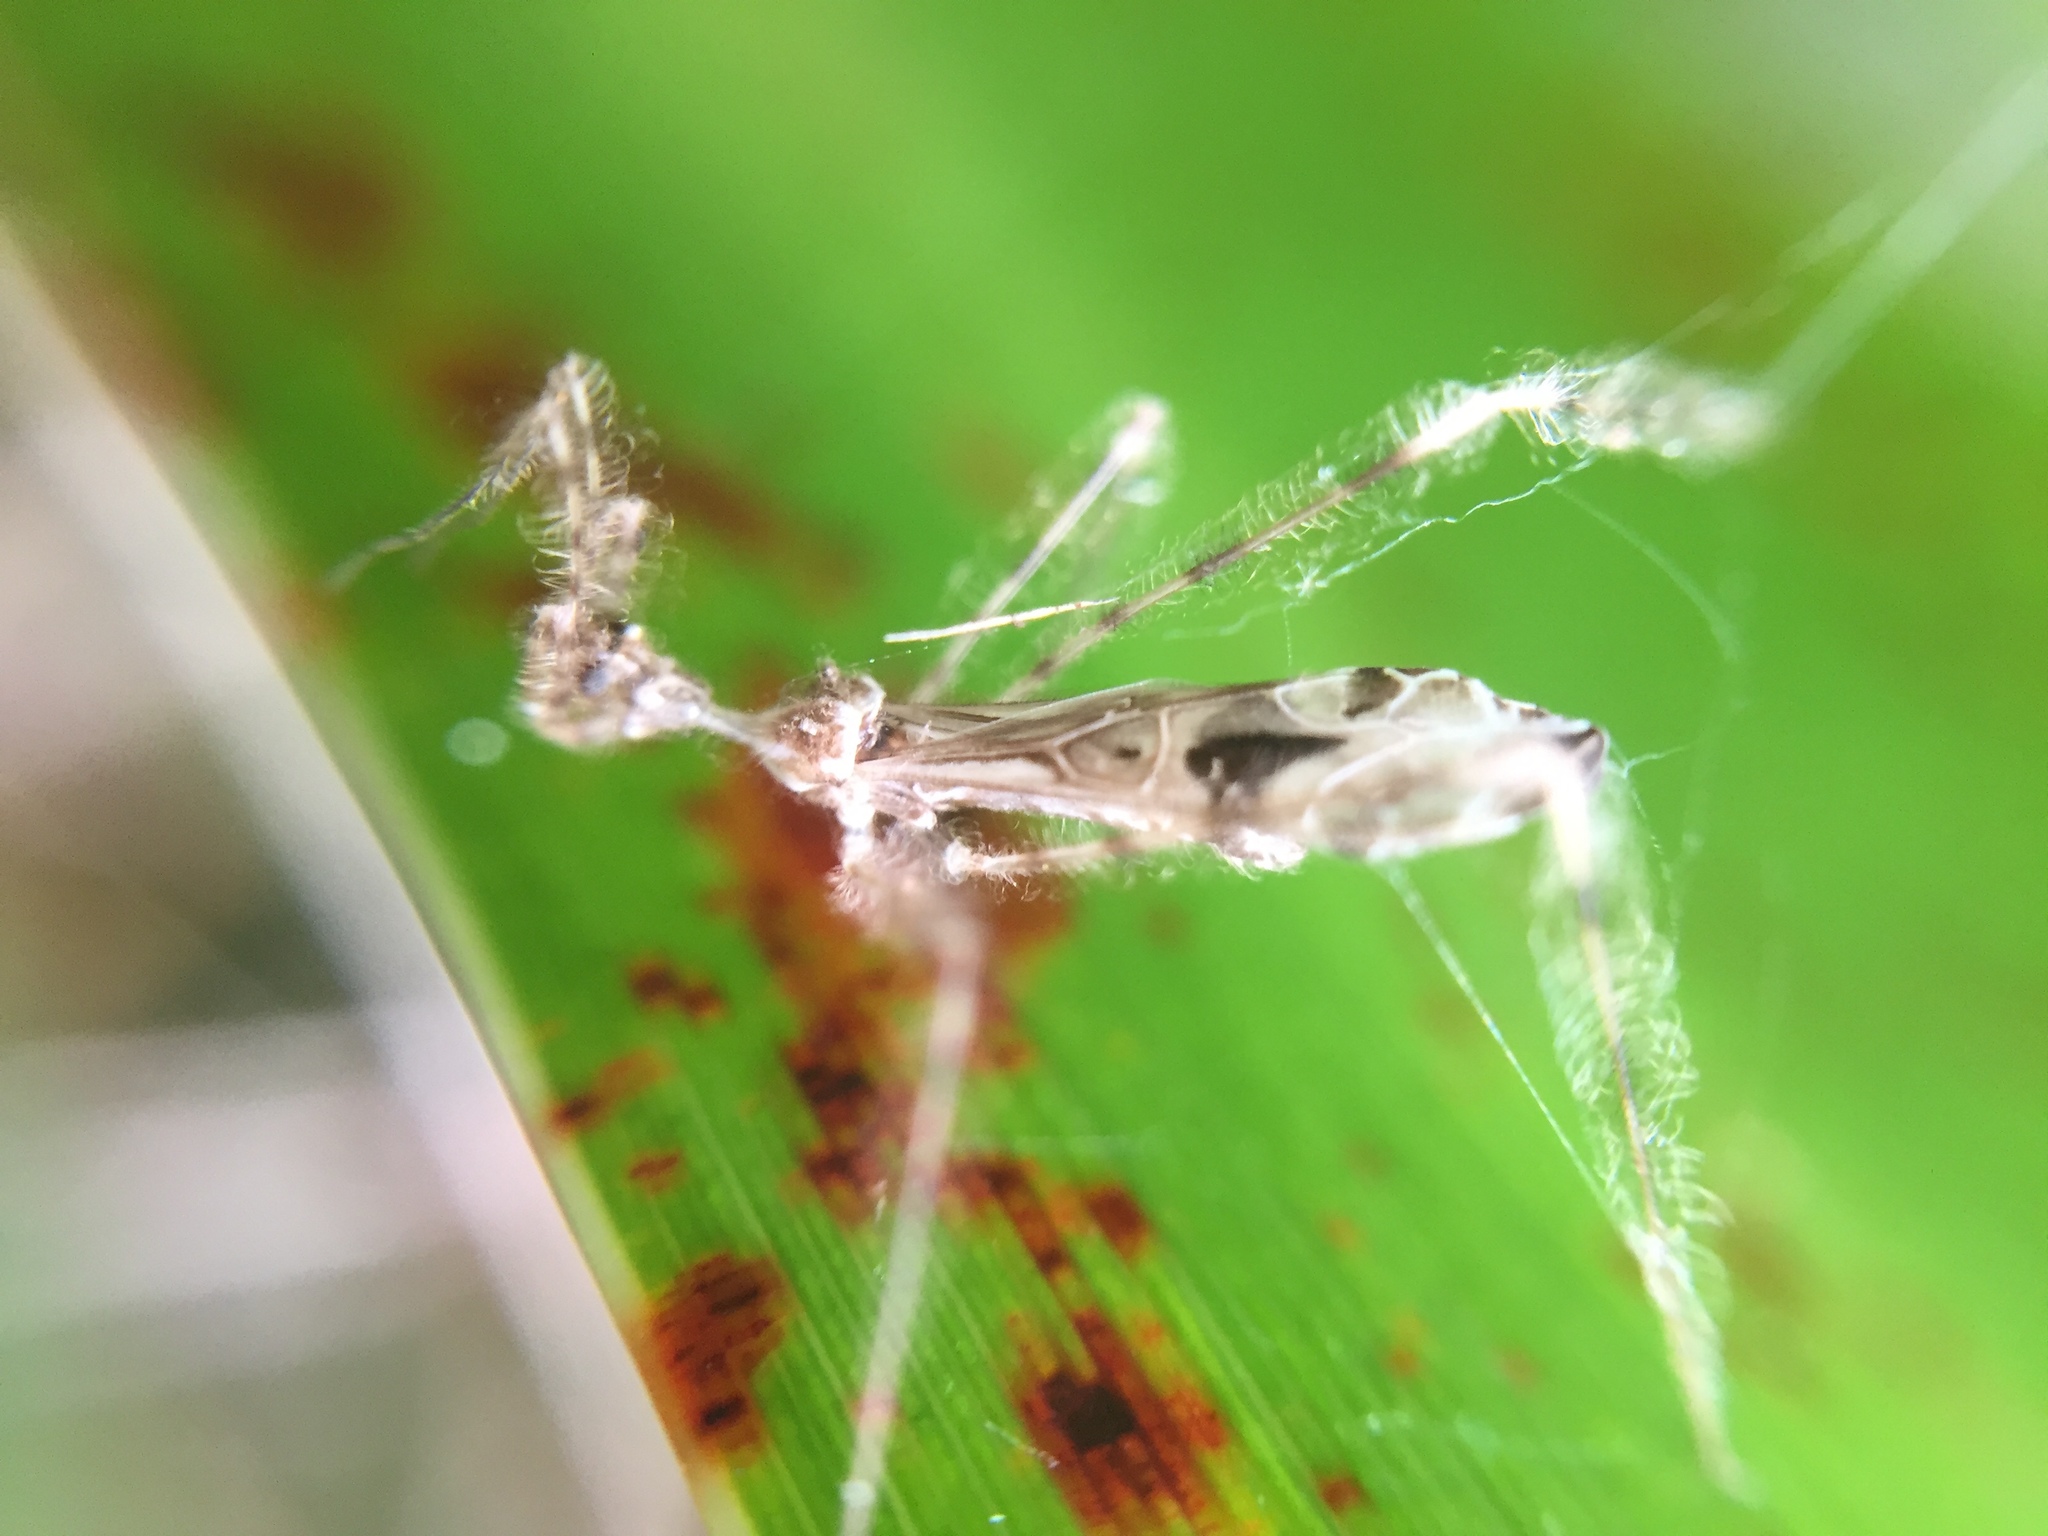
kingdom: Animalia
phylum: Arthropoda
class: Insecta
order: Hemiptera
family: Reduviidae
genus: Stenolemus
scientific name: Stenolemus fraterculus
